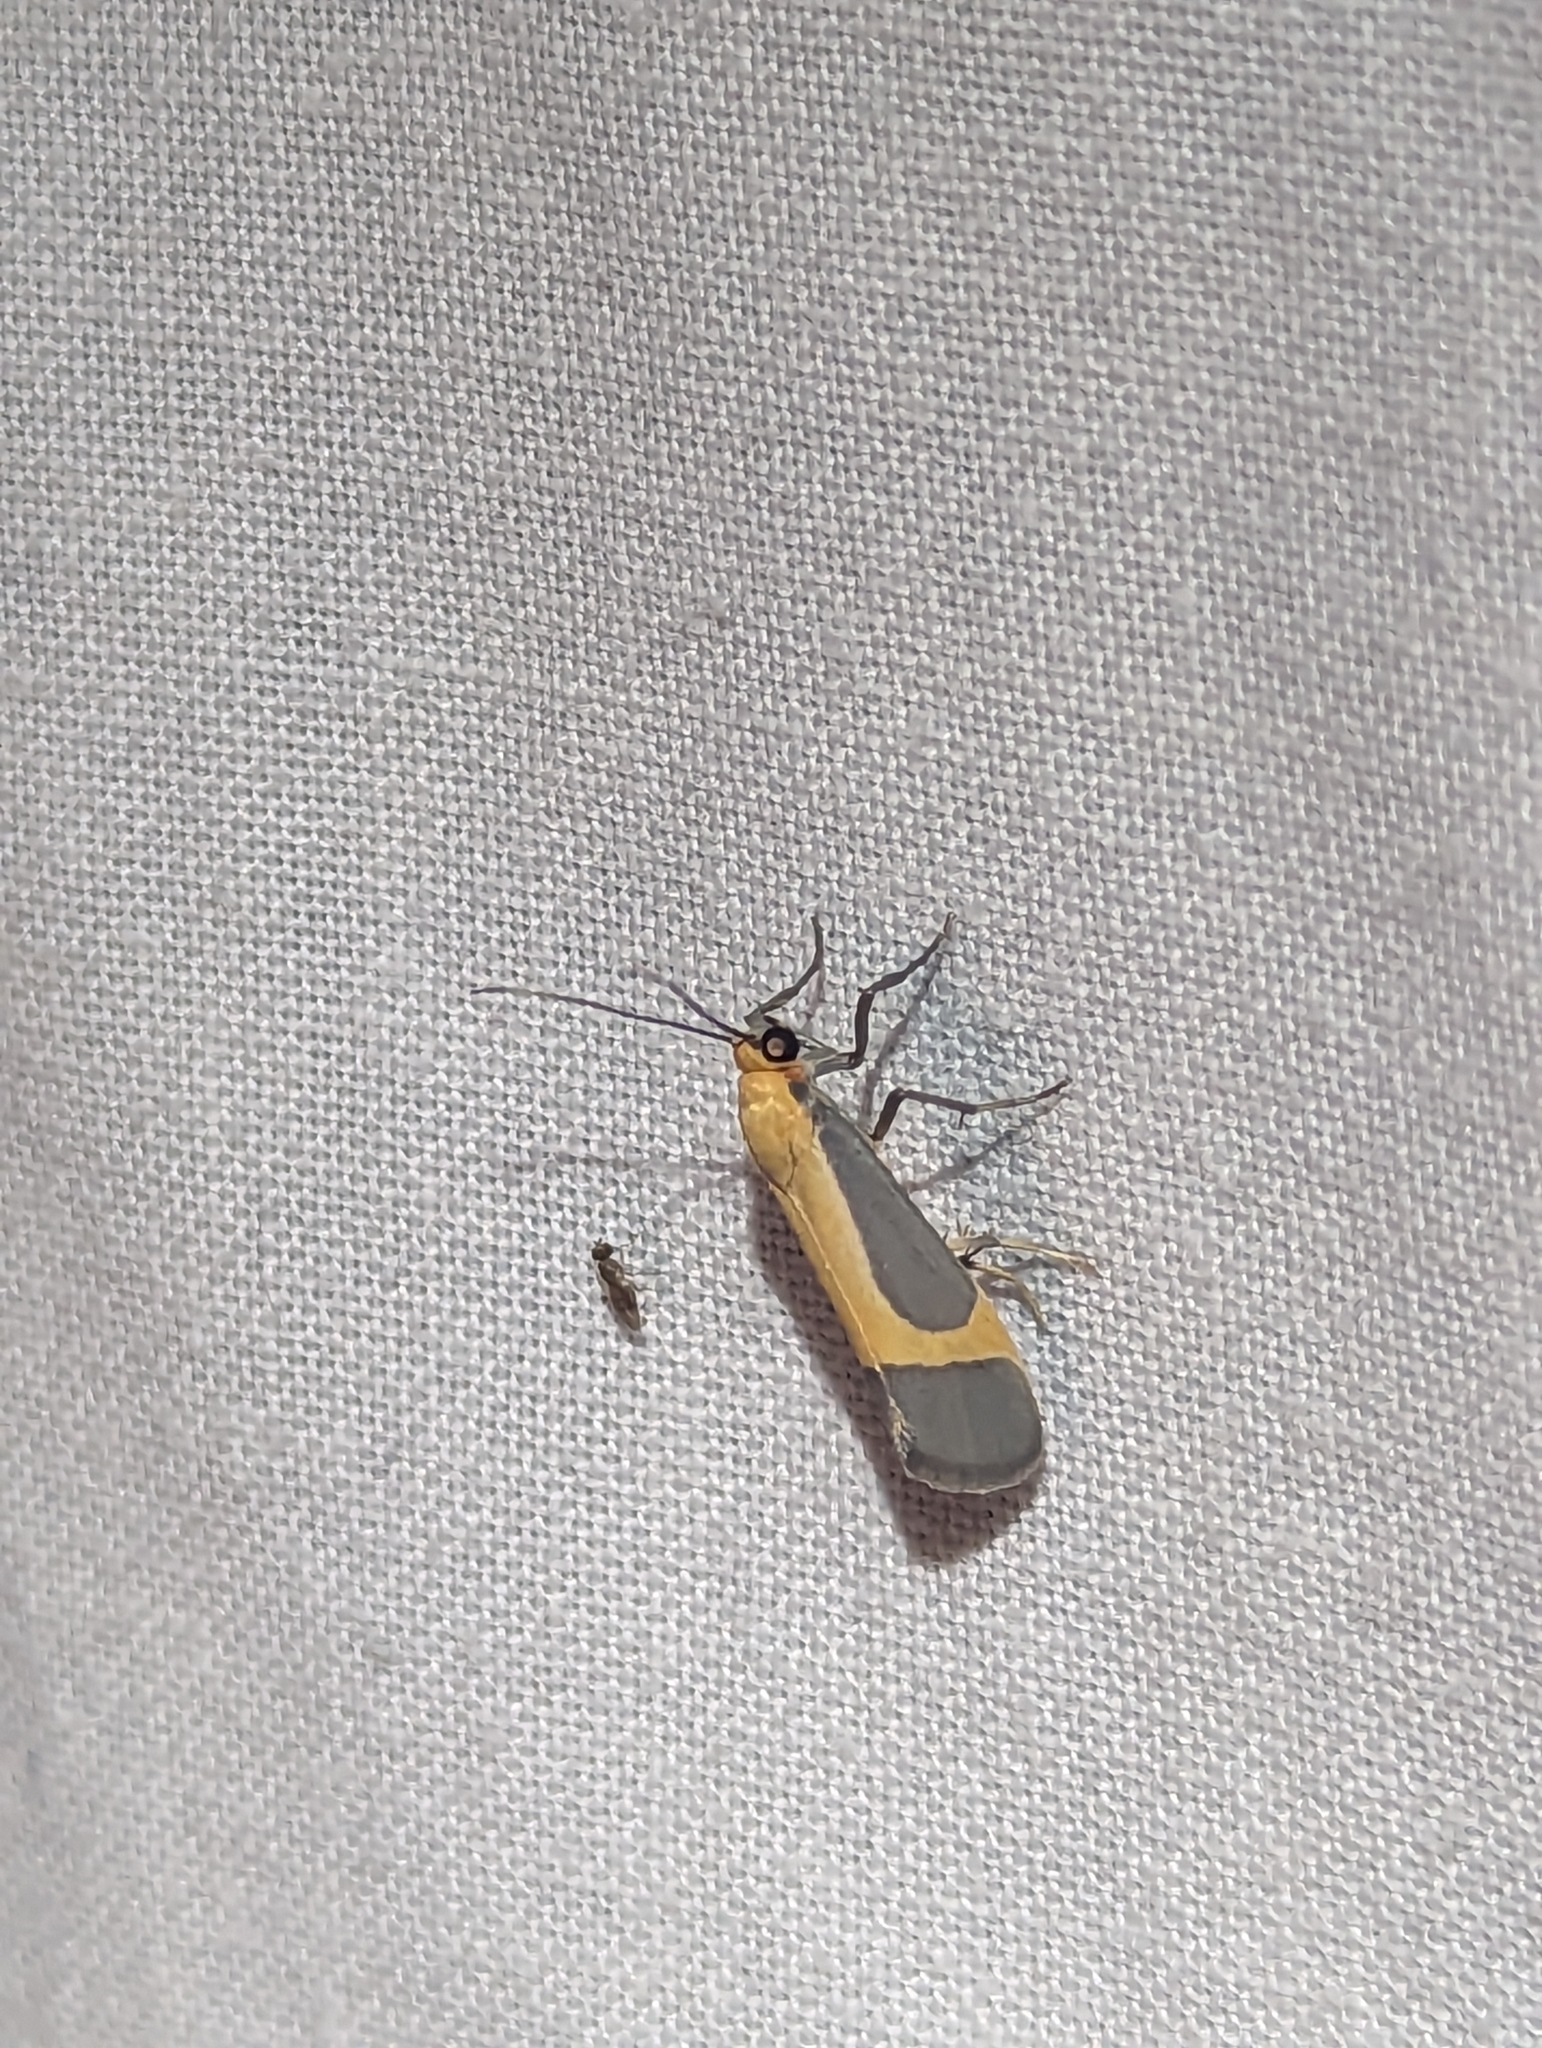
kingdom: Animalia
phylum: Arthropoda
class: Insecta
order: Lepidoptera
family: Erebidae
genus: Cisthene
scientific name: Cisthene angelus
